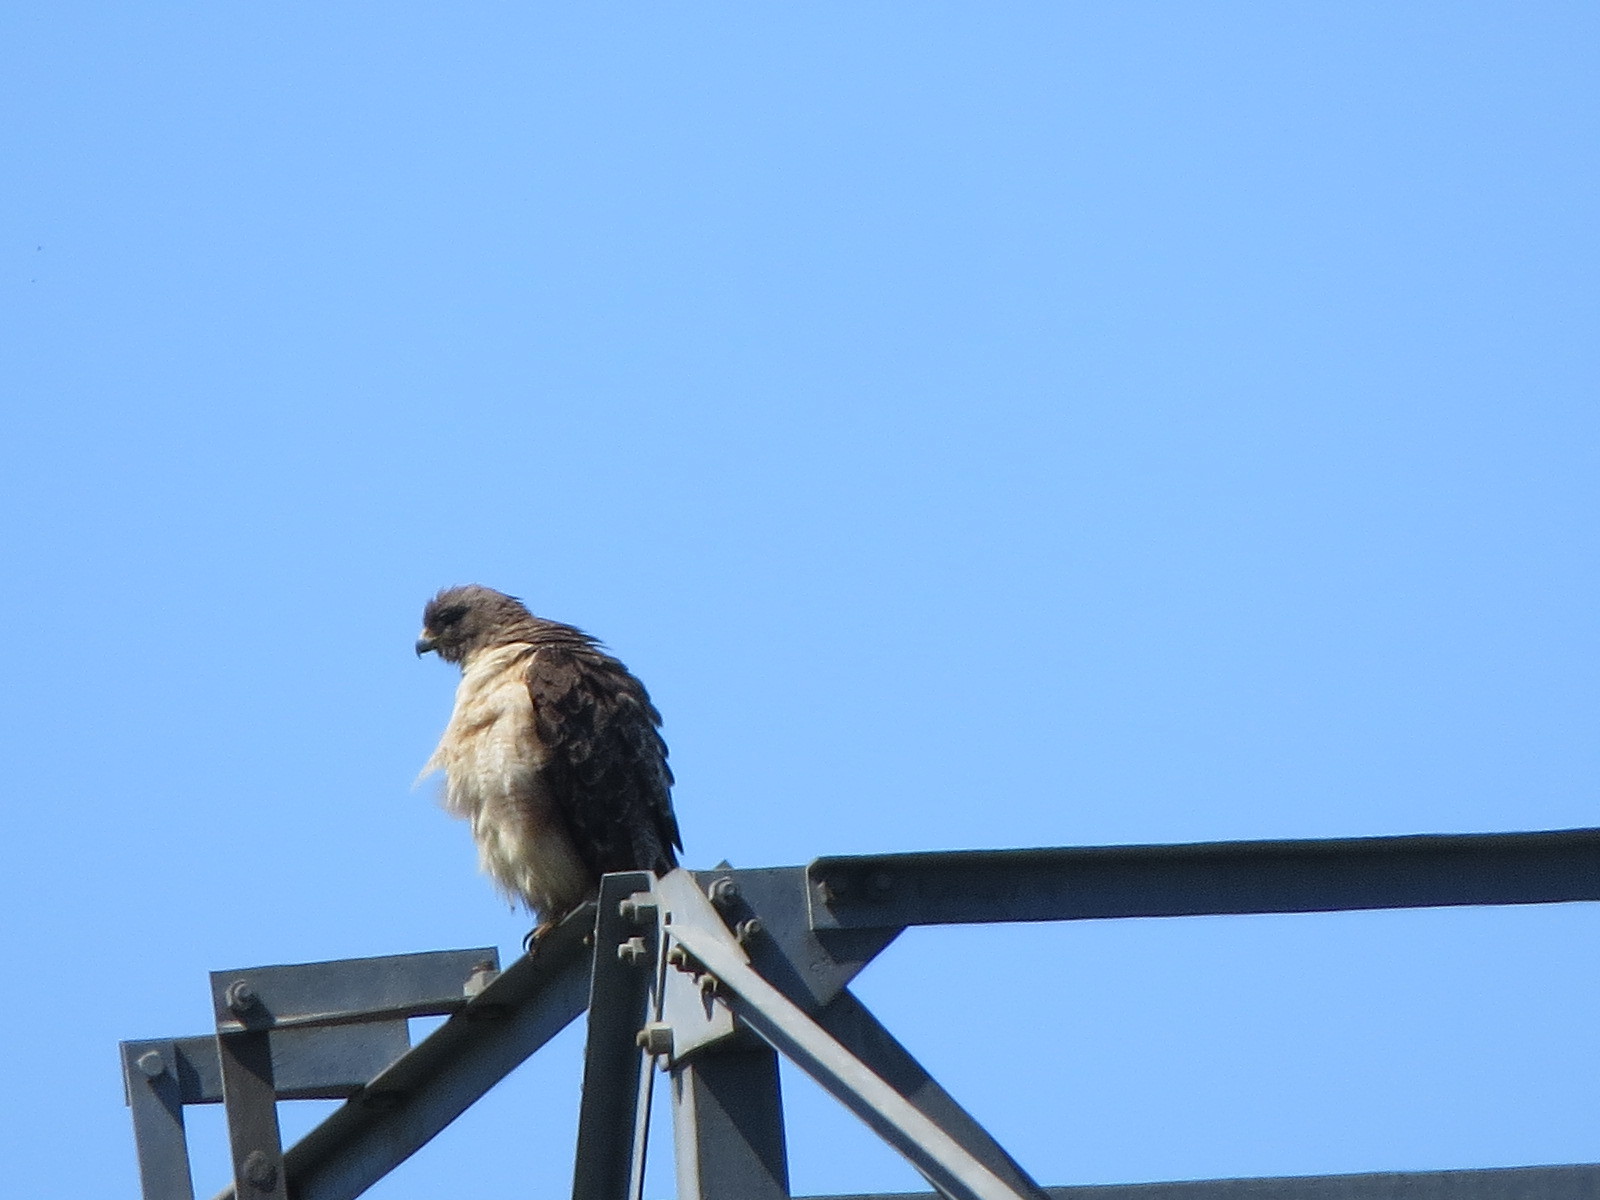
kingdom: Animalia
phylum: Chordata
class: Aves
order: Accipitriformes
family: Accipitridae
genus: Buteo
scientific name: Buteo jamaicensis
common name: Red-tailed hawk
